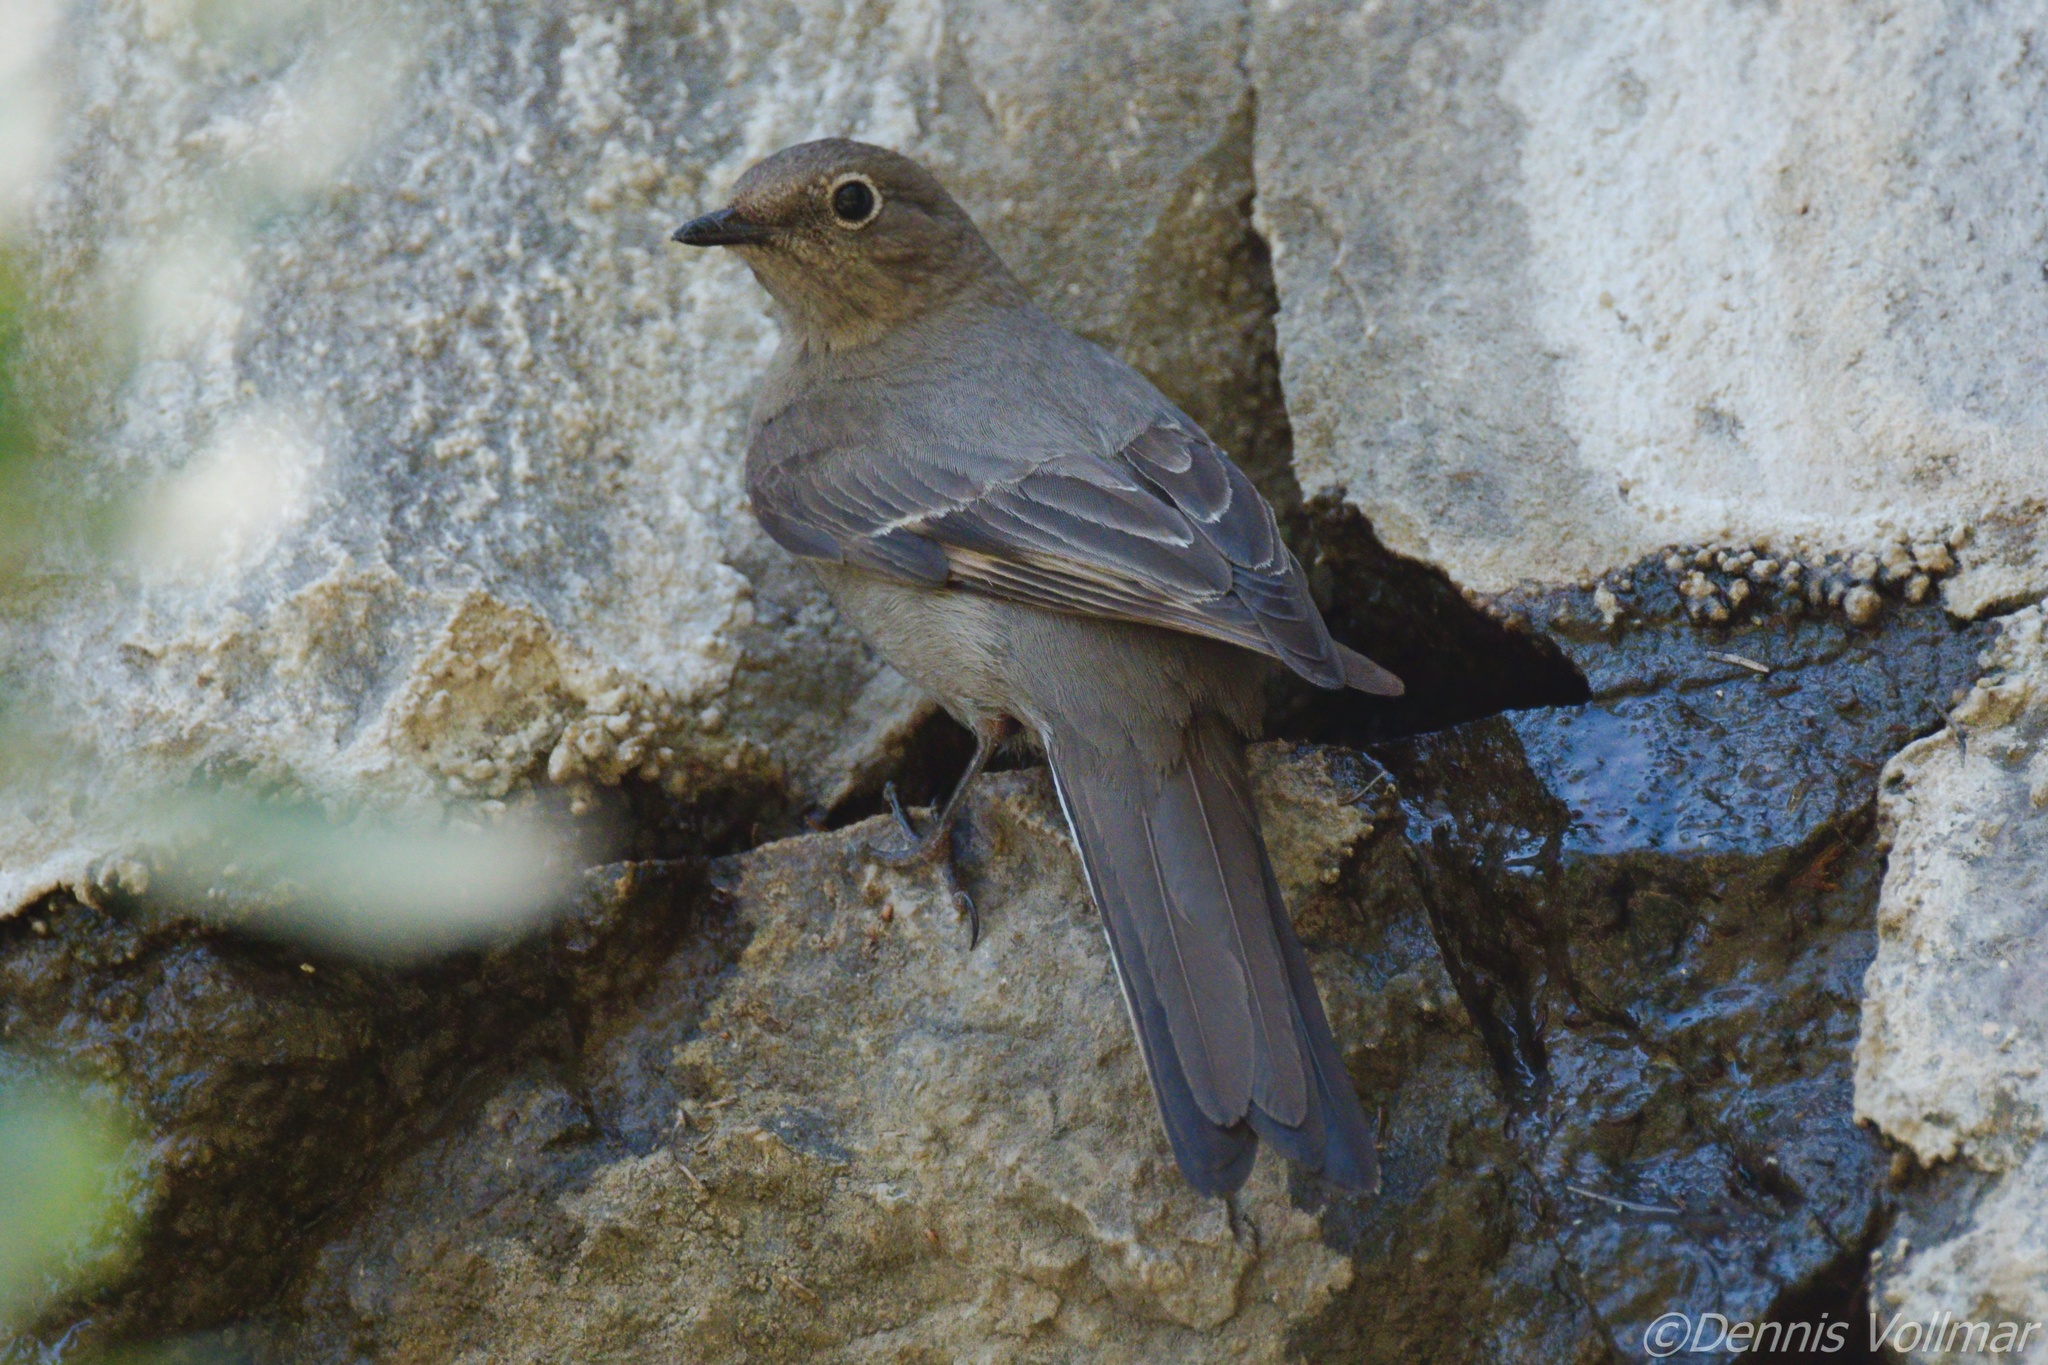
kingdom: Animalia
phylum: Chordata
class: Aves
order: Passeriformes
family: Turdidae
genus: Myadestes
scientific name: Myadestes townsendi
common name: Townsend's solitaire
